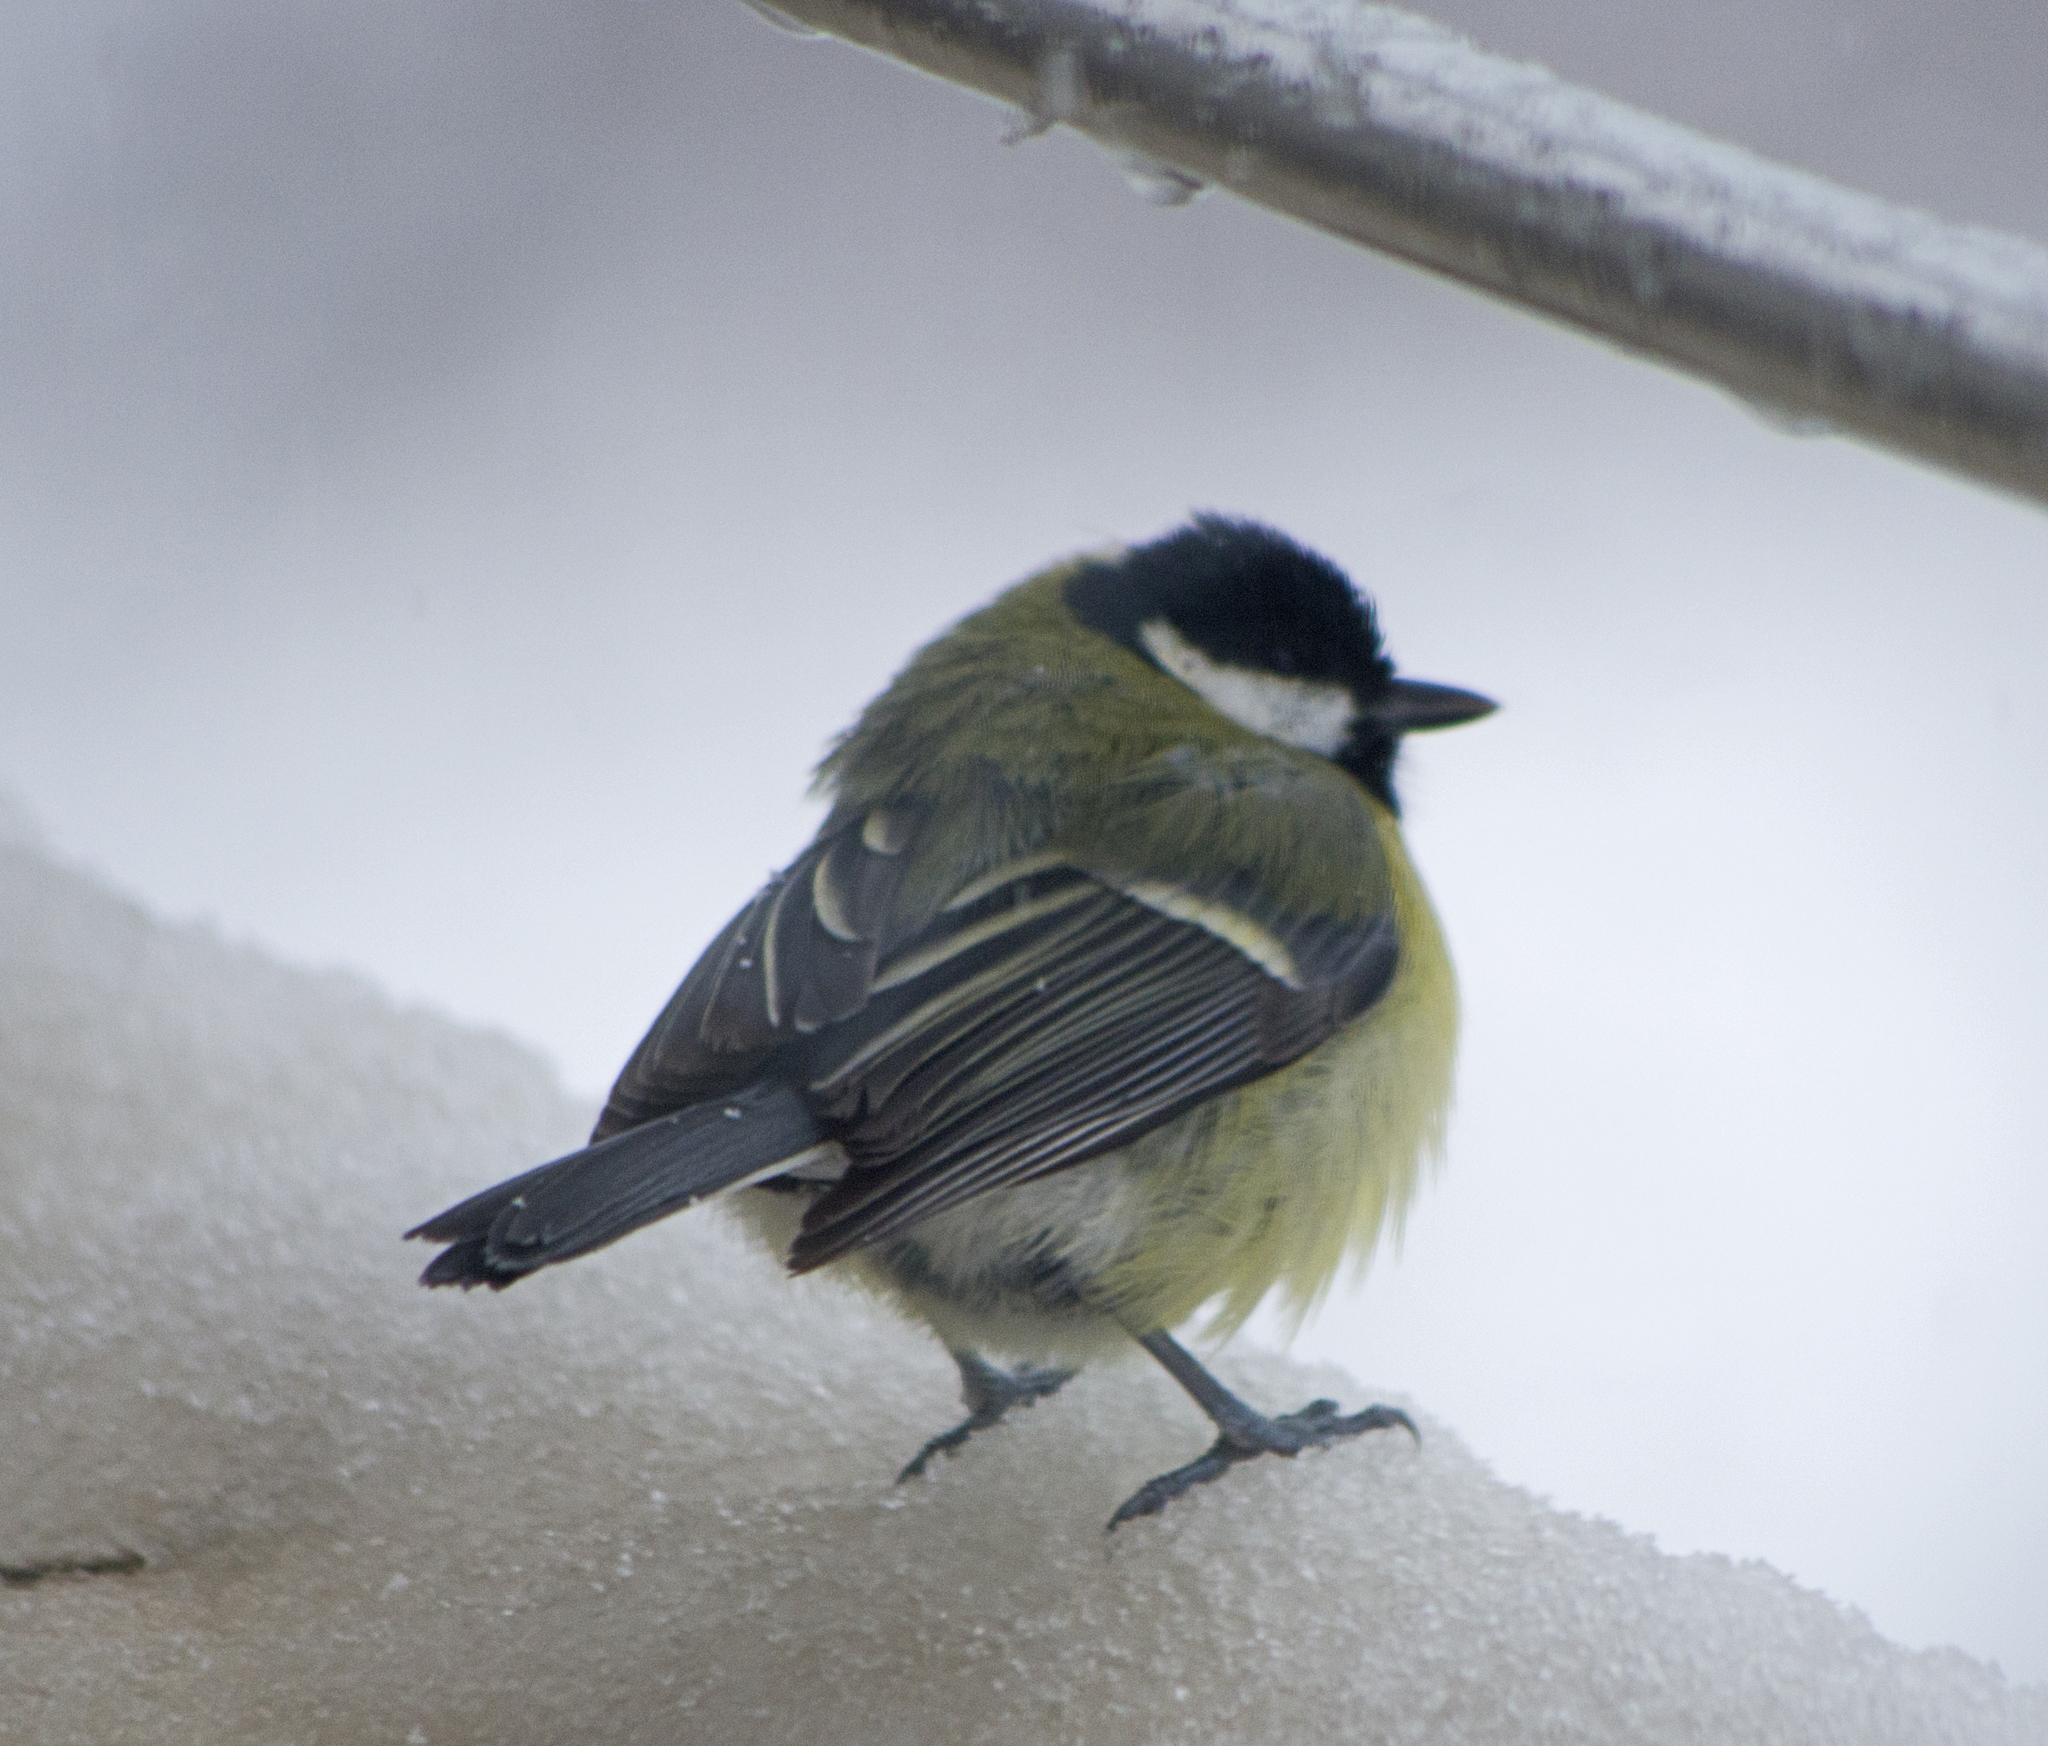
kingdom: Animalia
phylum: Chordata
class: Aves
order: Passeriformes
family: Paridae
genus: Parus
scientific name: Parus major
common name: Great tit
